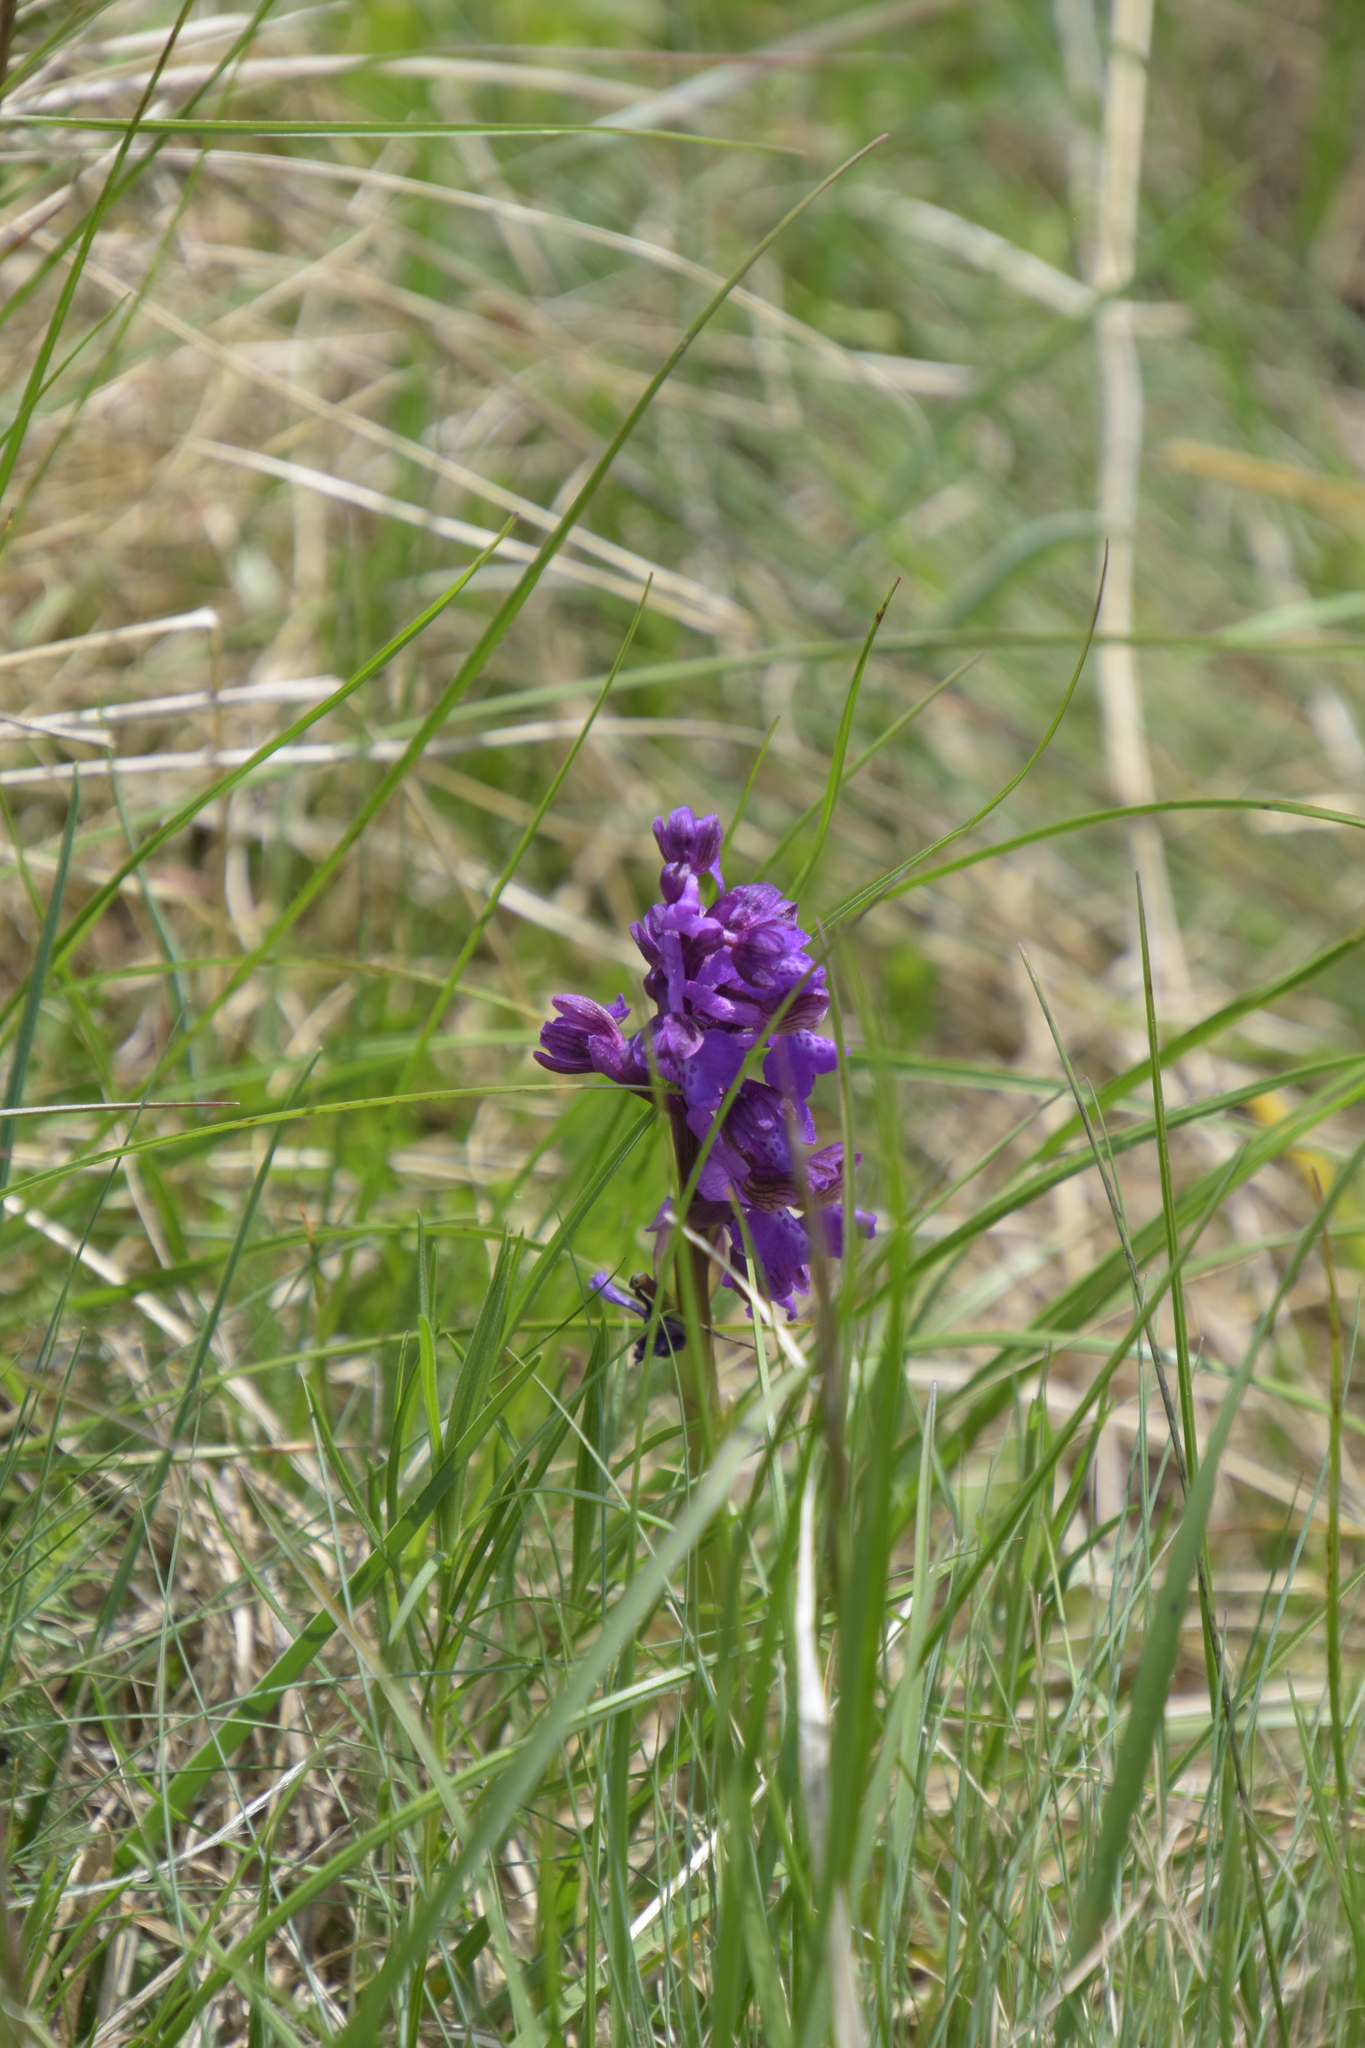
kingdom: Plantae
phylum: Tracheophyta
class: Liliopsida
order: Asparagales
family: Orchidaceae
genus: Anacamptis
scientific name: Anacamptis morio
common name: Green-winged orchid
